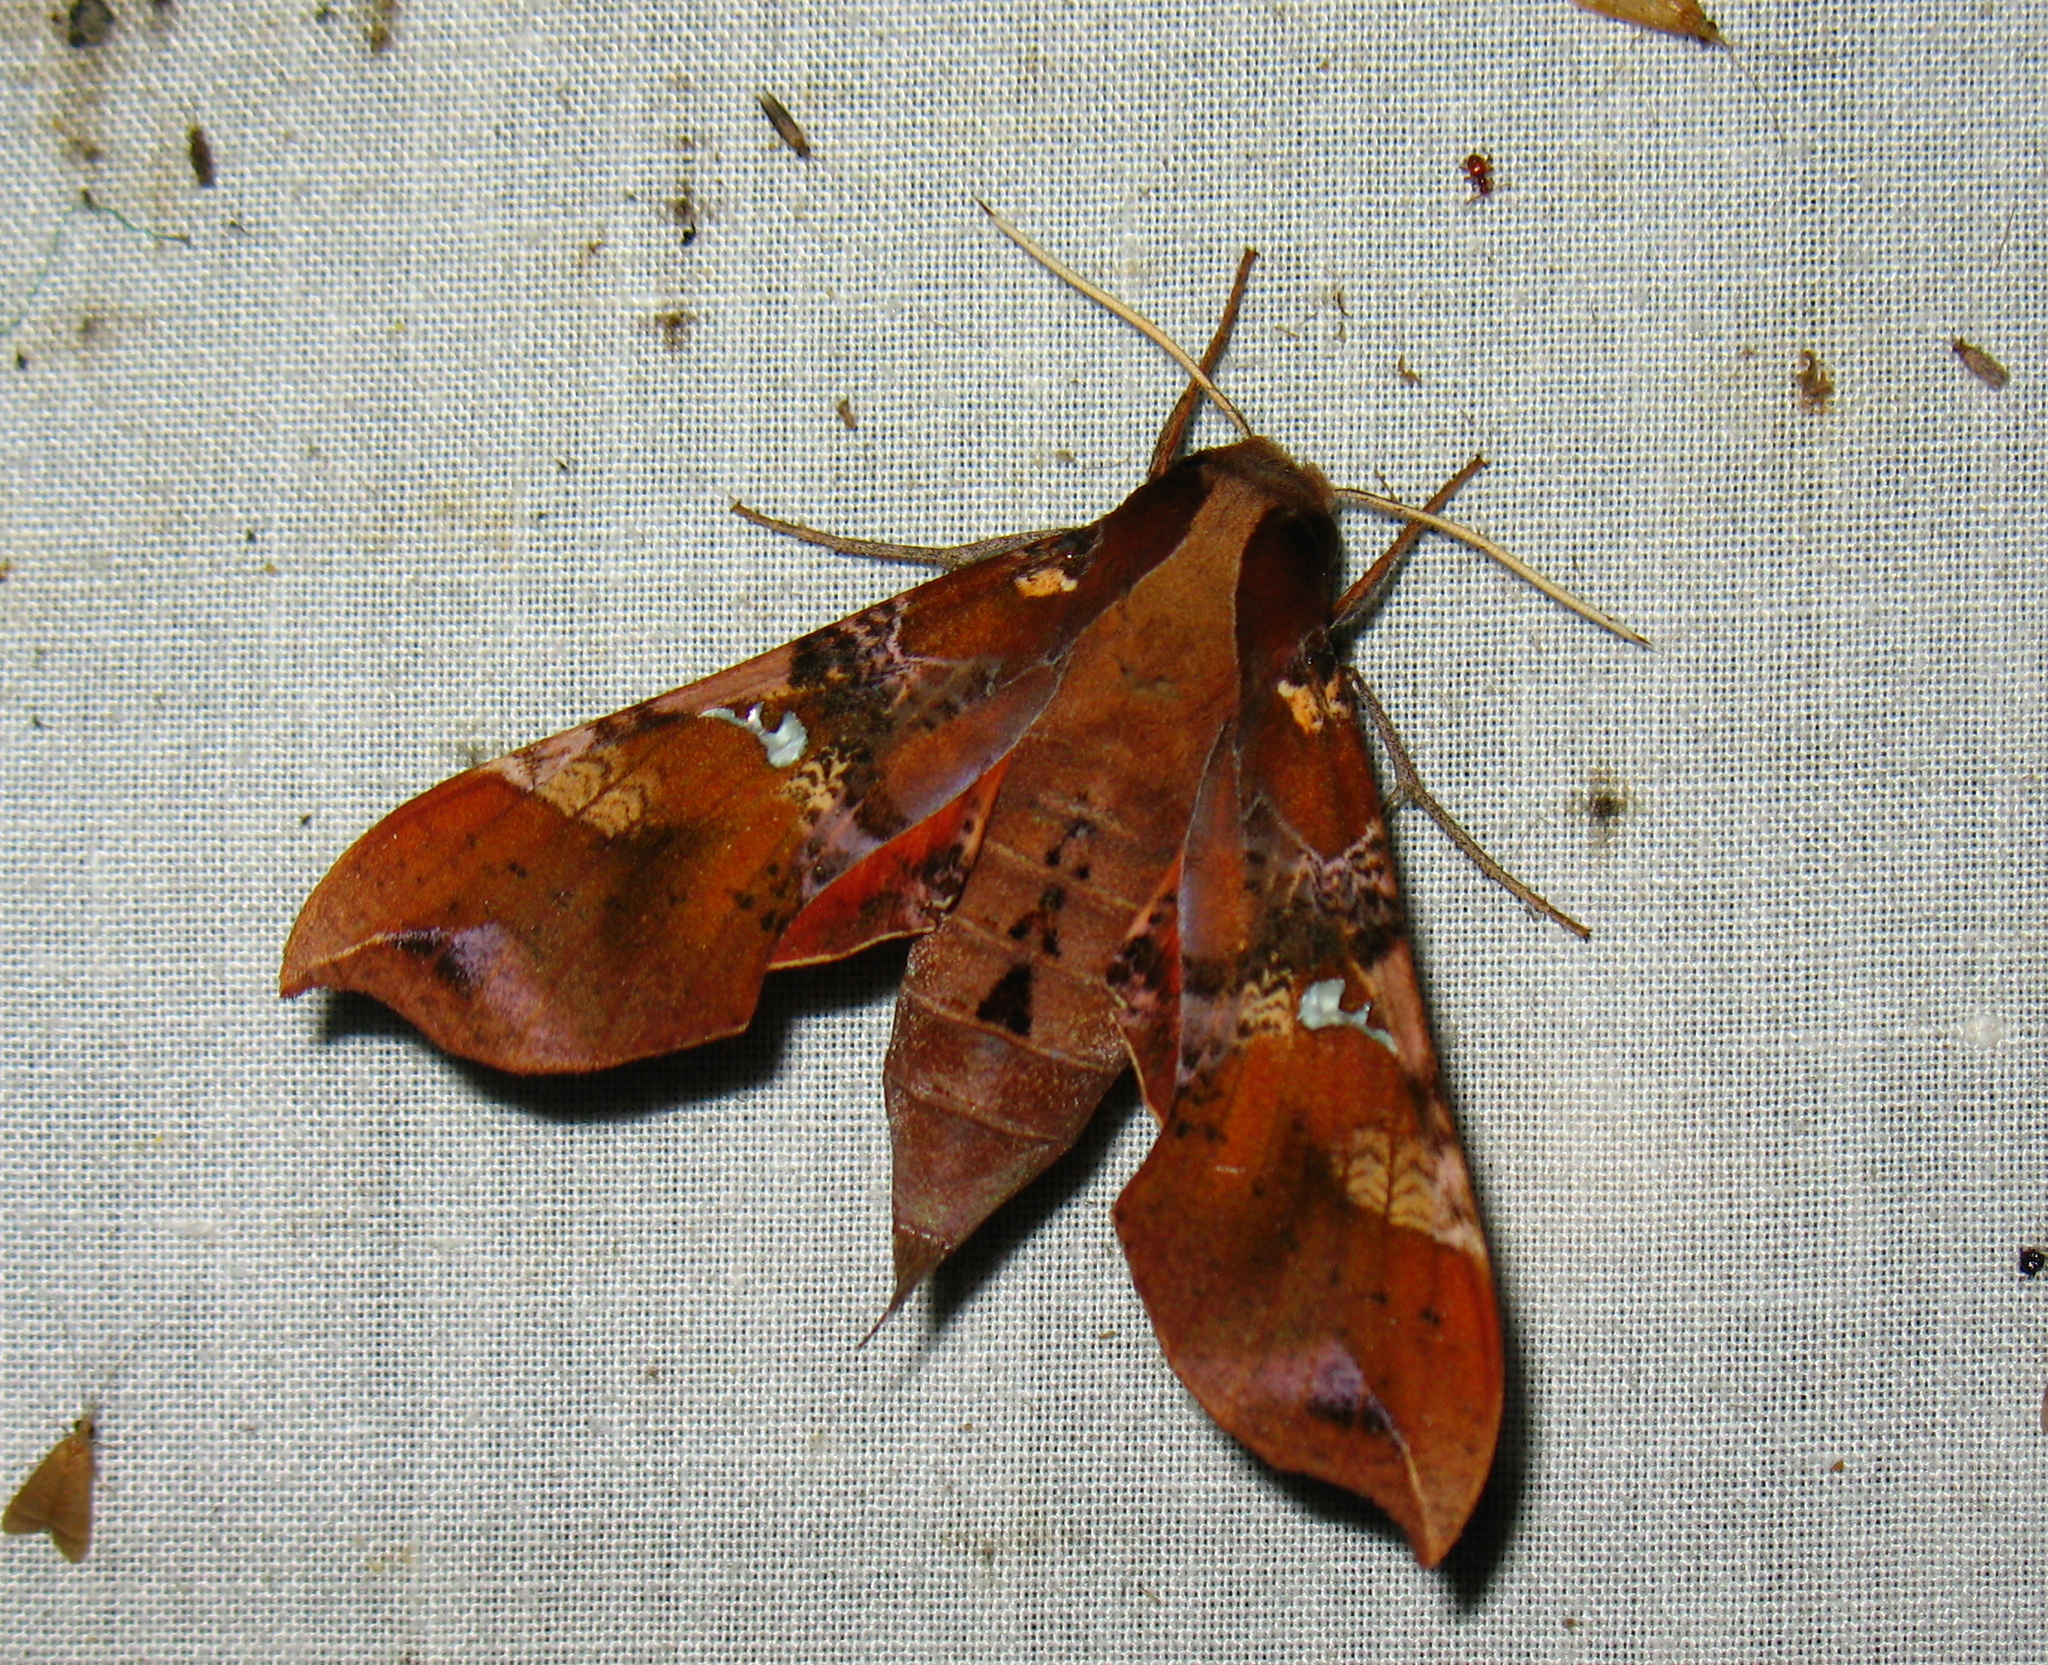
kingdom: Animalia
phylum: Arthropoda
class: Insecta
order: Lepidoptera
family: Sphingidae
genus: Callionima
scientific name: Callionima falcifera
